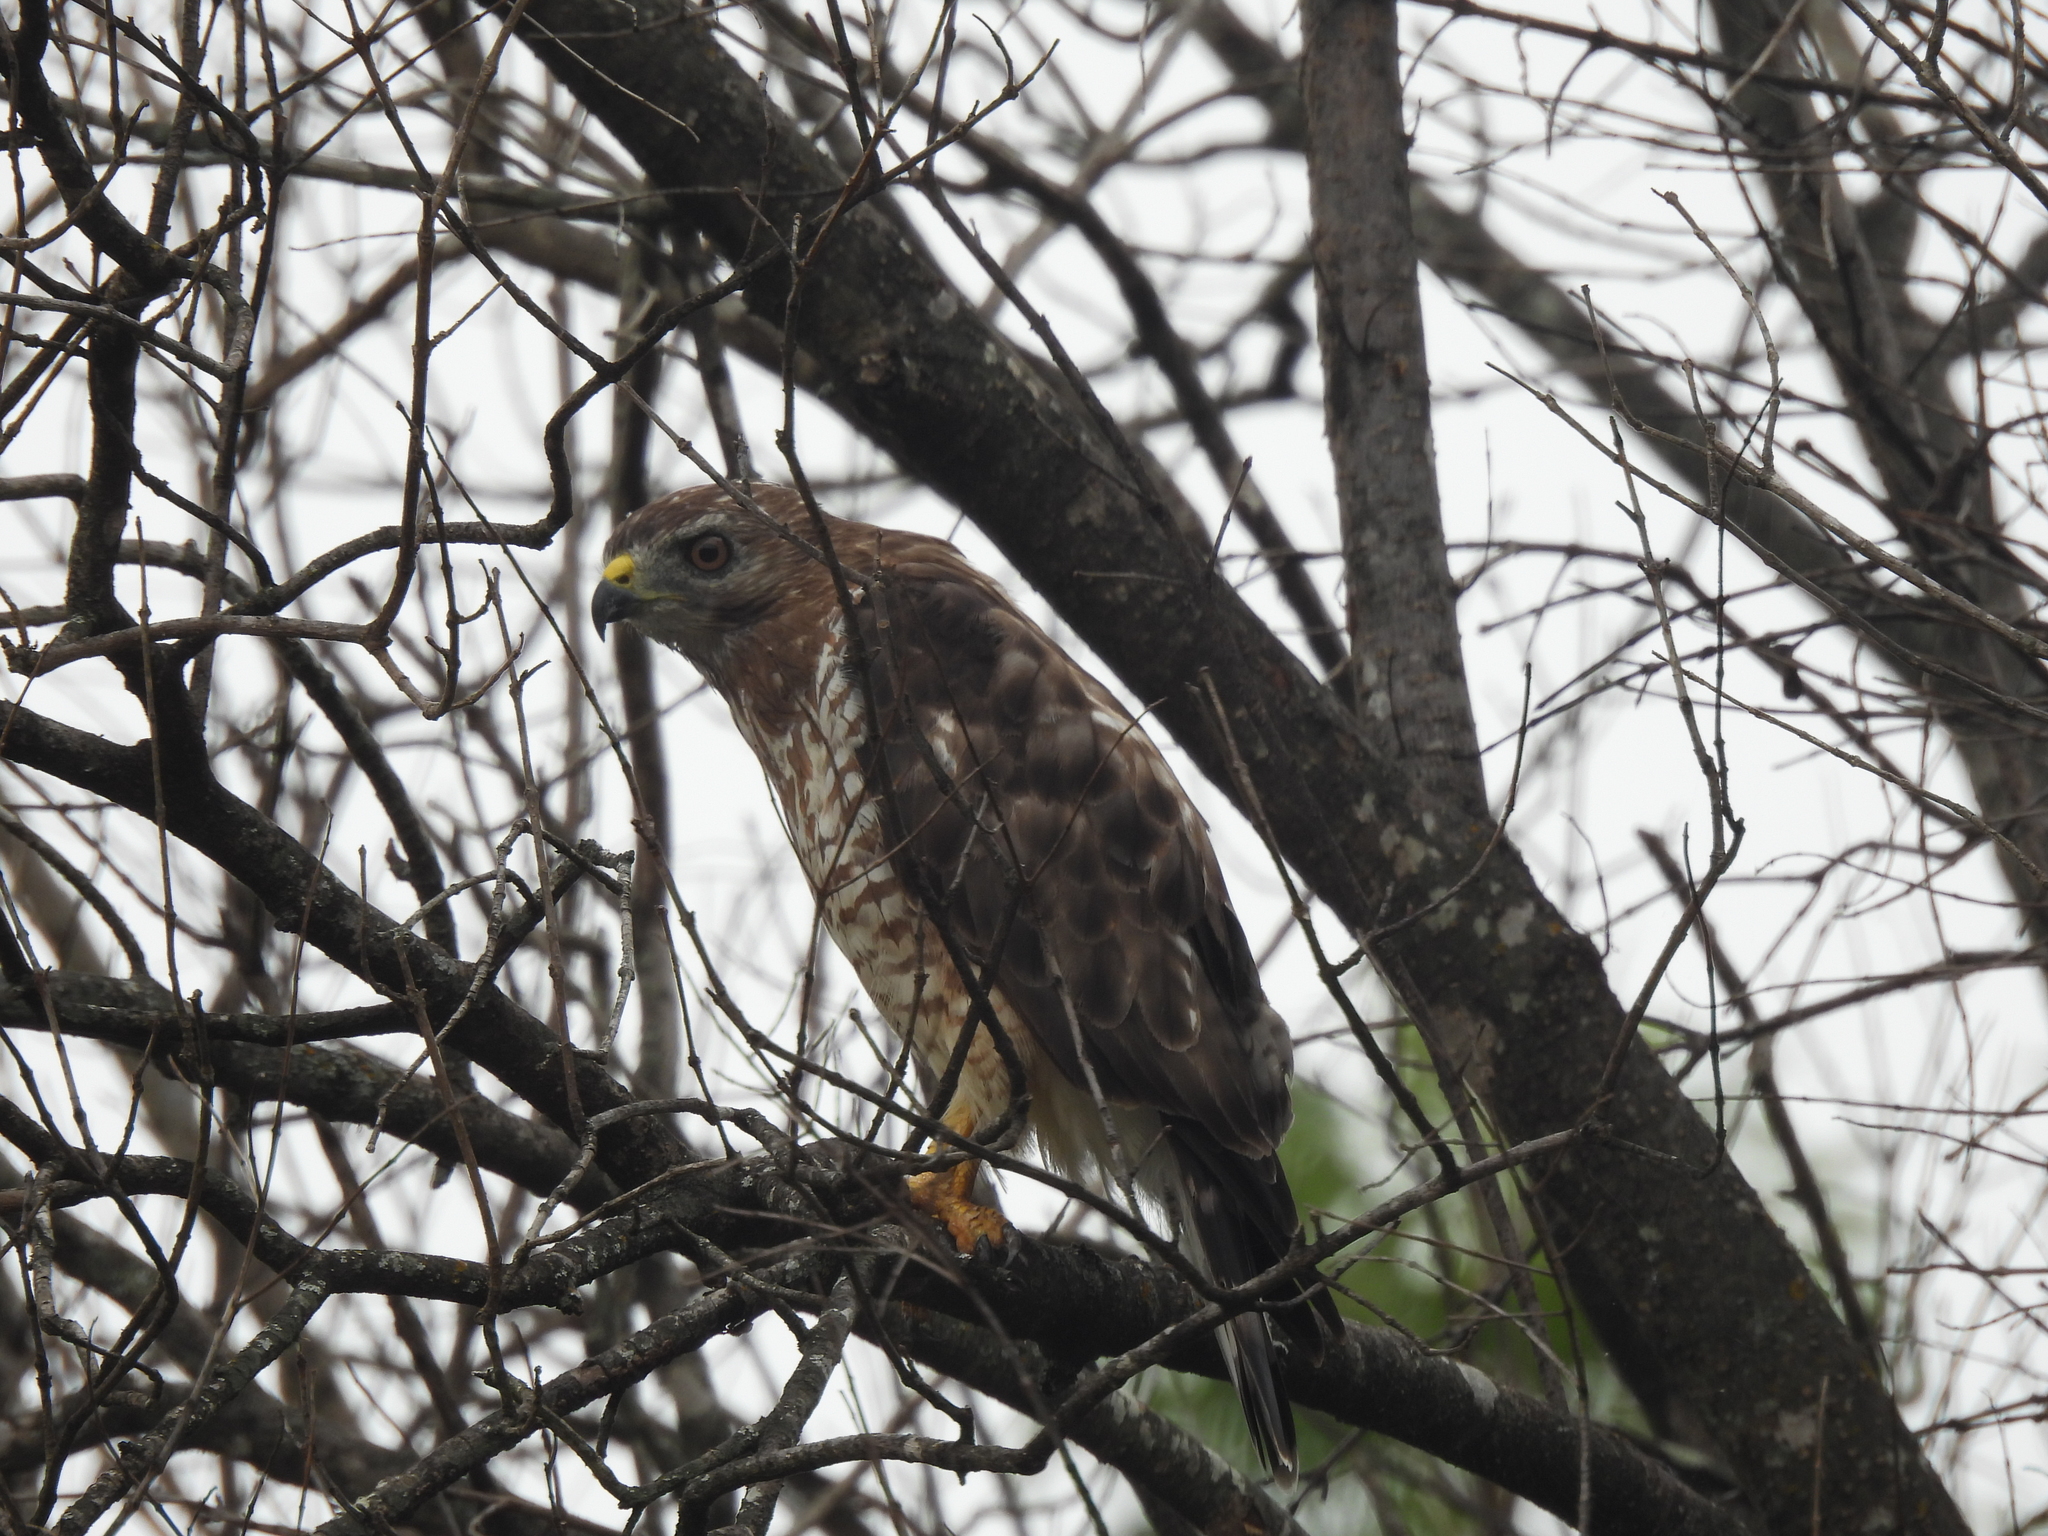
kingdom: Animalia
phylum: Chordata
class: Aves
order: Accipitriformes
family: Accipitridae
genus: Buteo
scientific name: Buteo platypterus
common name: Broad-winged hawk
